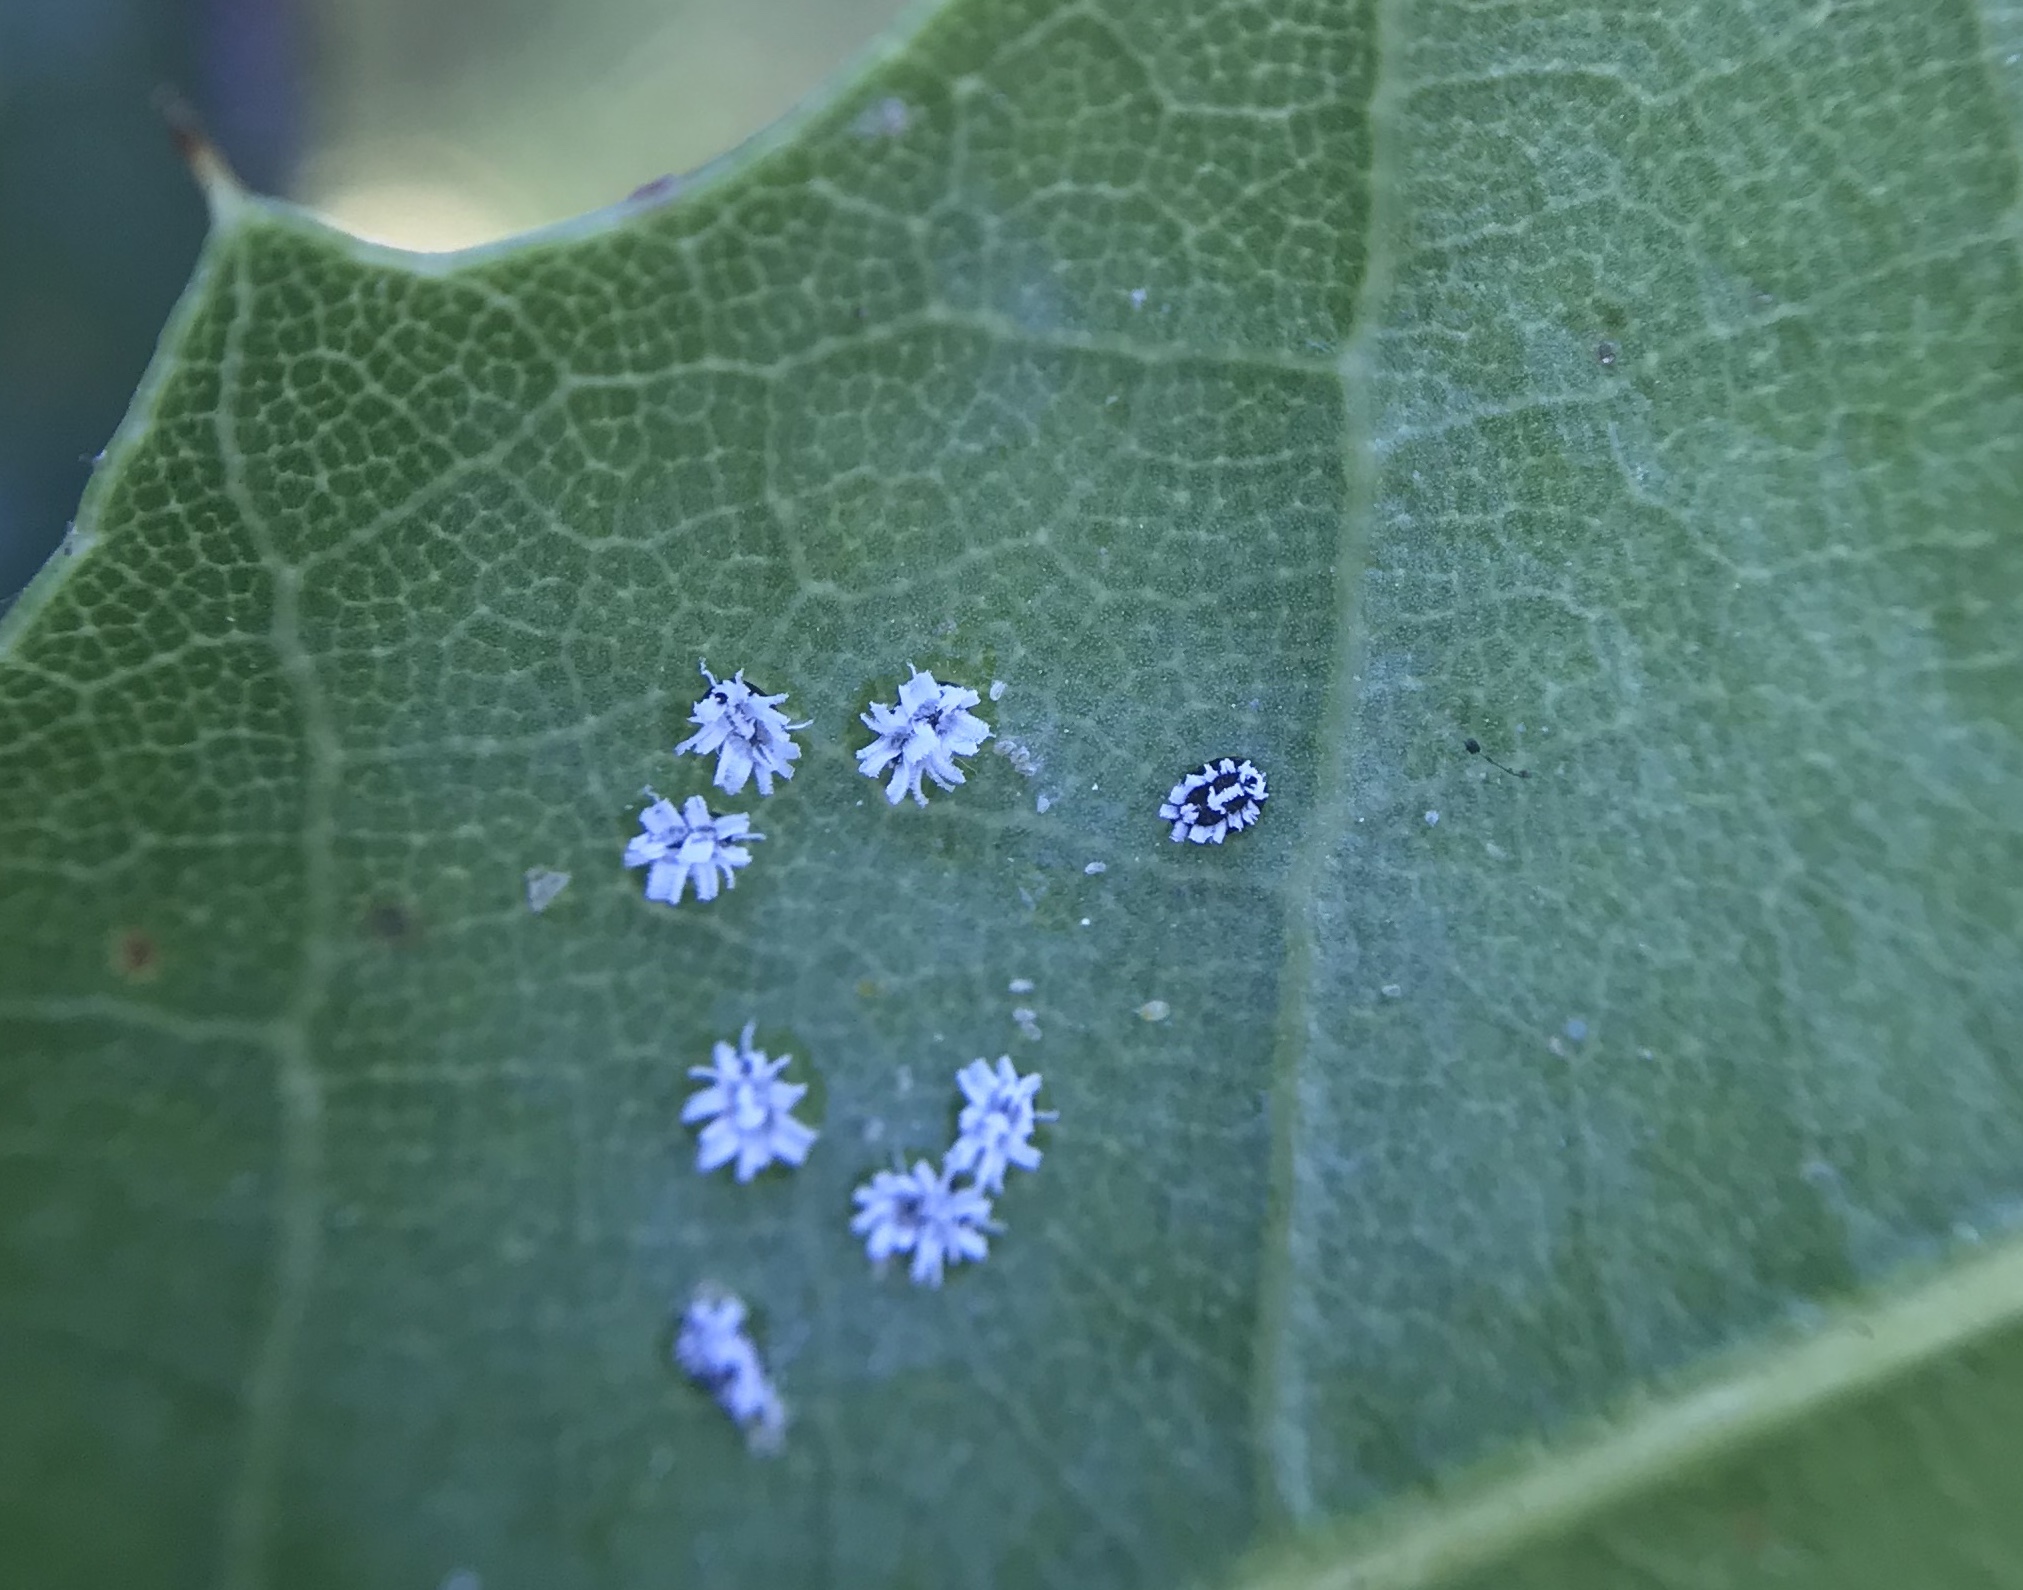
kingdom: Animalia
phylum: Arthropoda
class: Insecta
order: Hemiptera
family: Aleyrodidae
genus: Aleuroplatus
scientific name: Aleuroplatus coronata
